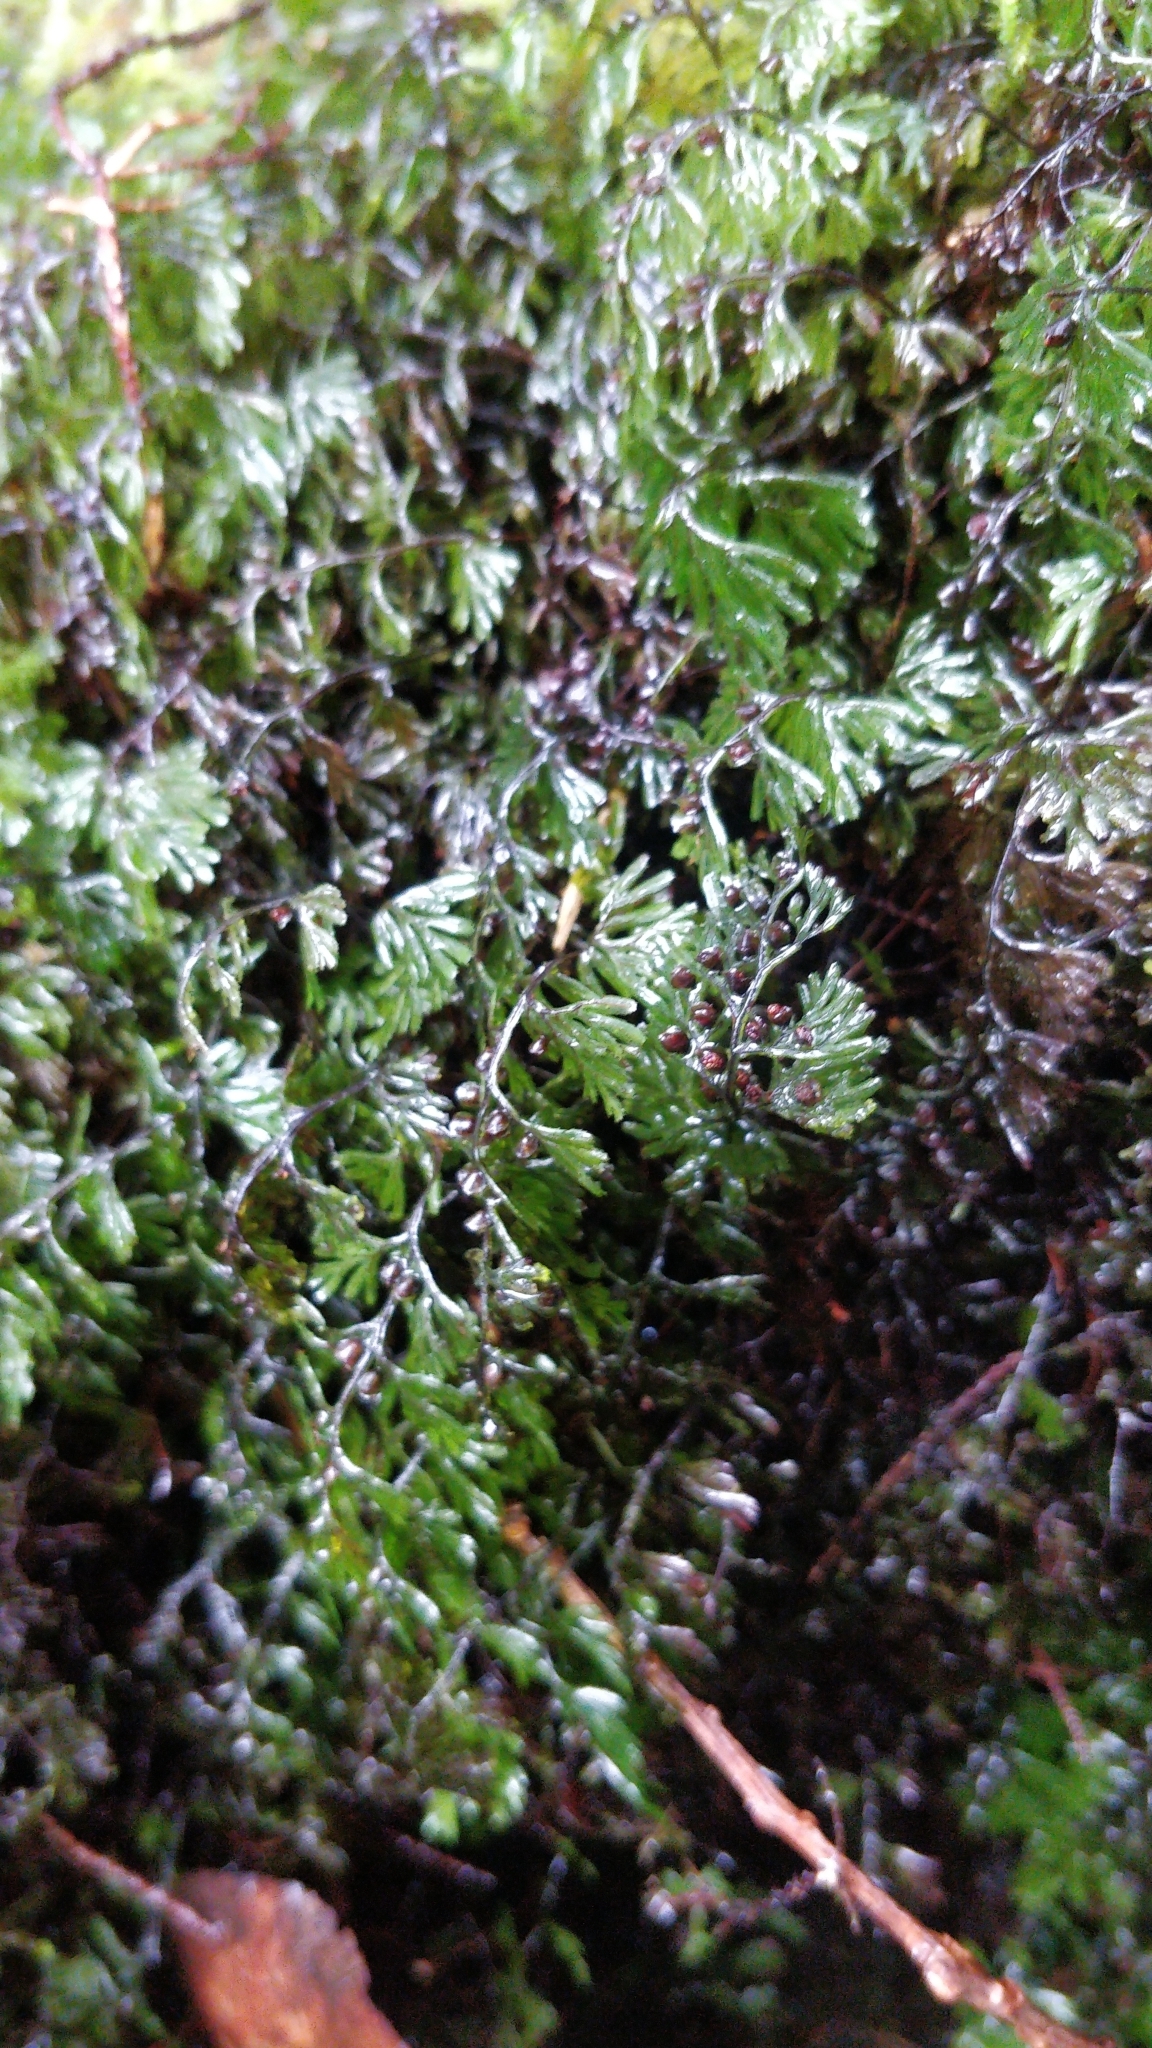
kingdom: Plantae
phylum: Tracheophyta
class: Polypodiopsida
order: Hymenophyllales
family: Hymenophyllaceae
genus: Hymenophyllum
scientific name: Hymenophyllum tunbrigense
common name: Tunbridge filmy fern
